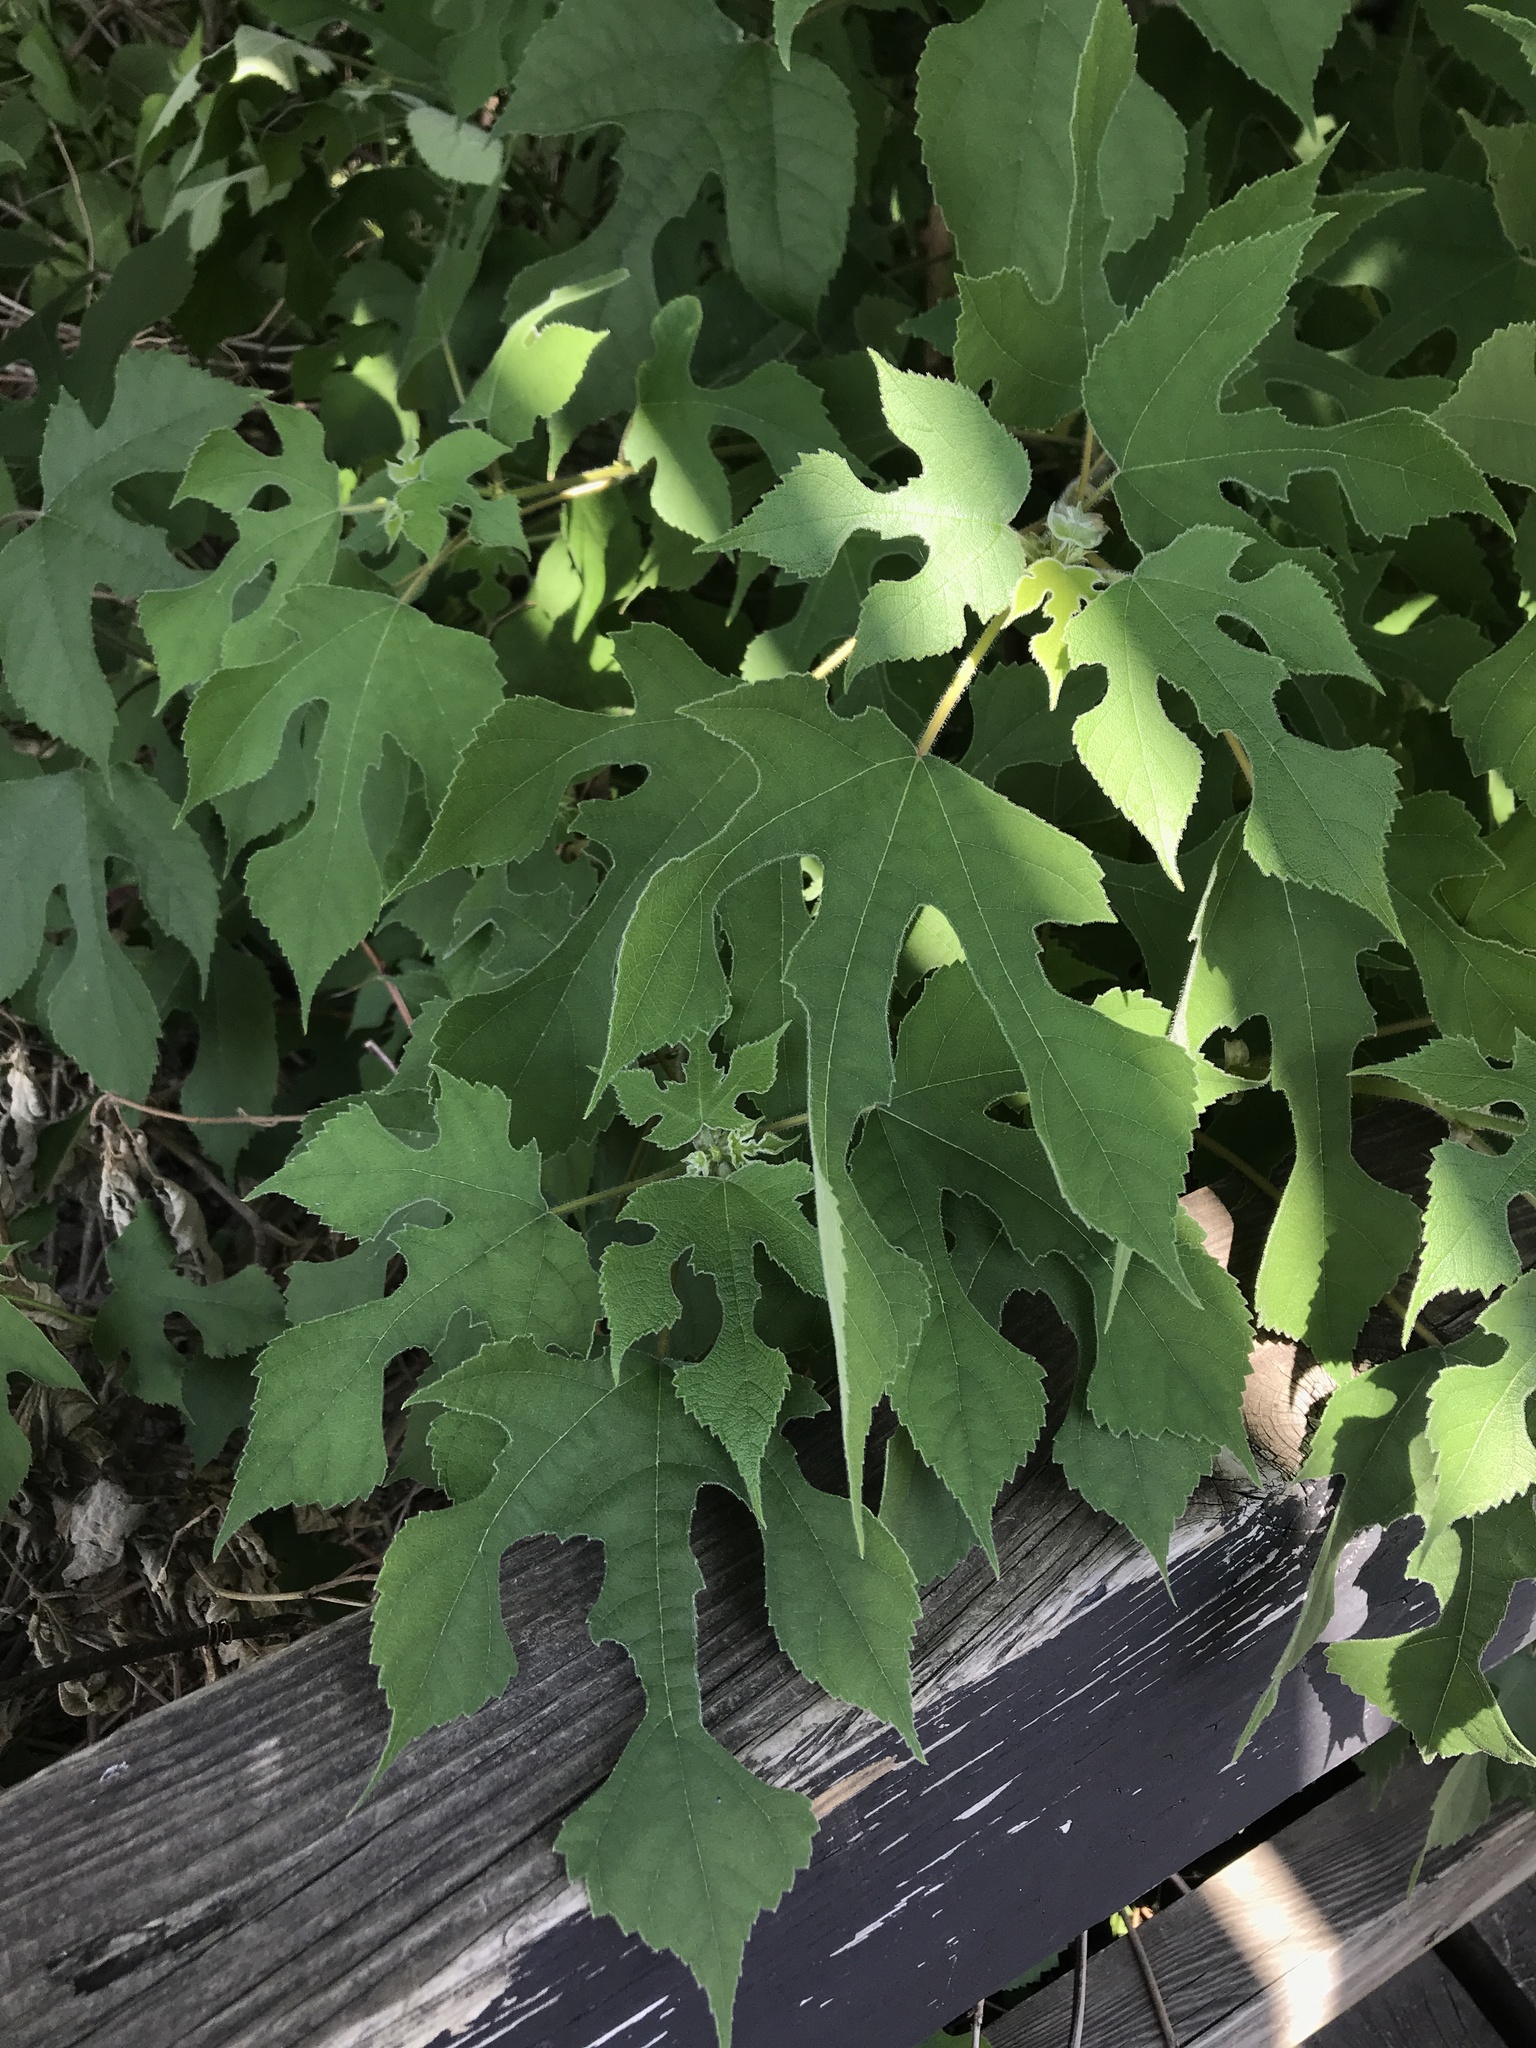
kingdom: Plantae
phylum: Tracheophyta
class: Magnoliopsida
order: Rosales
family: Moraceae
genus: Broussonetia
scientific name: Broussonetia papyrifera
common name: Paper mulberry
